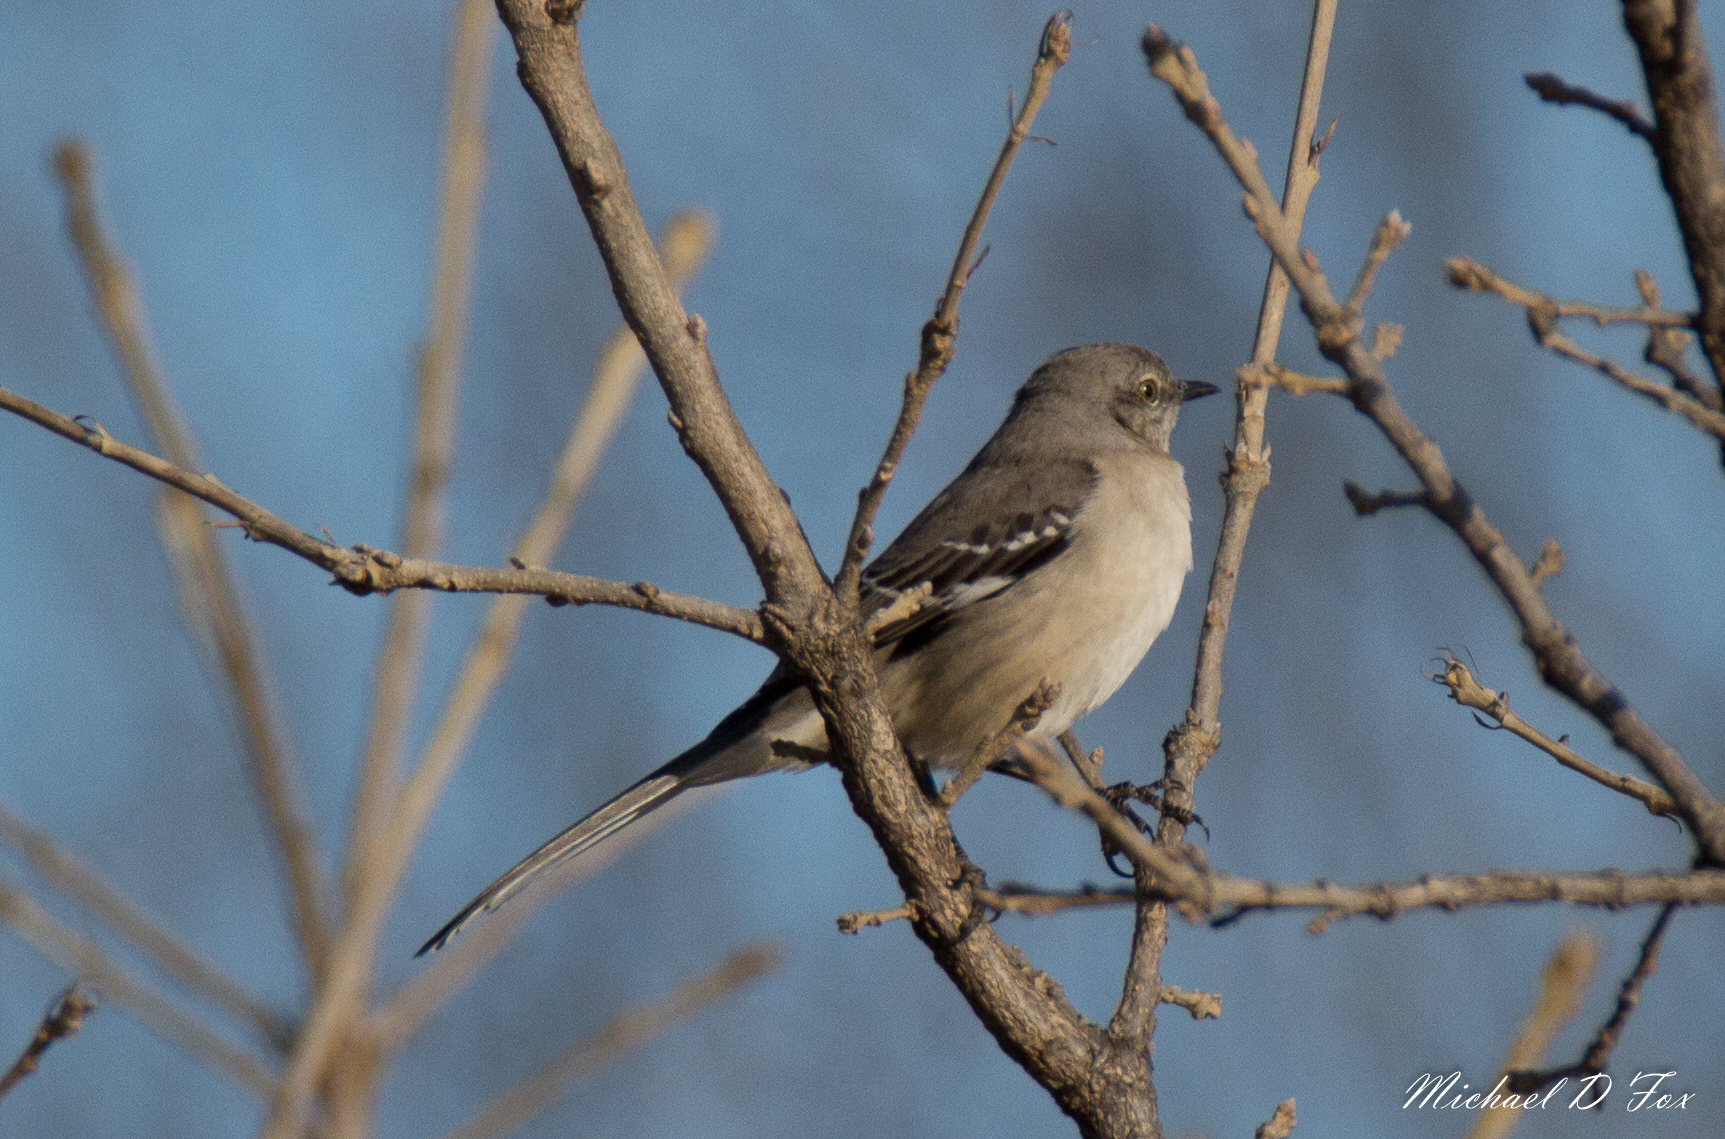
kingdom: Animalia
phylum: Chordata
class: Aves
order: Passeriformes
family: Mimidae
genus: Mimus
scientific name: Mimus polyglottos
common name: Northern mockingbird
